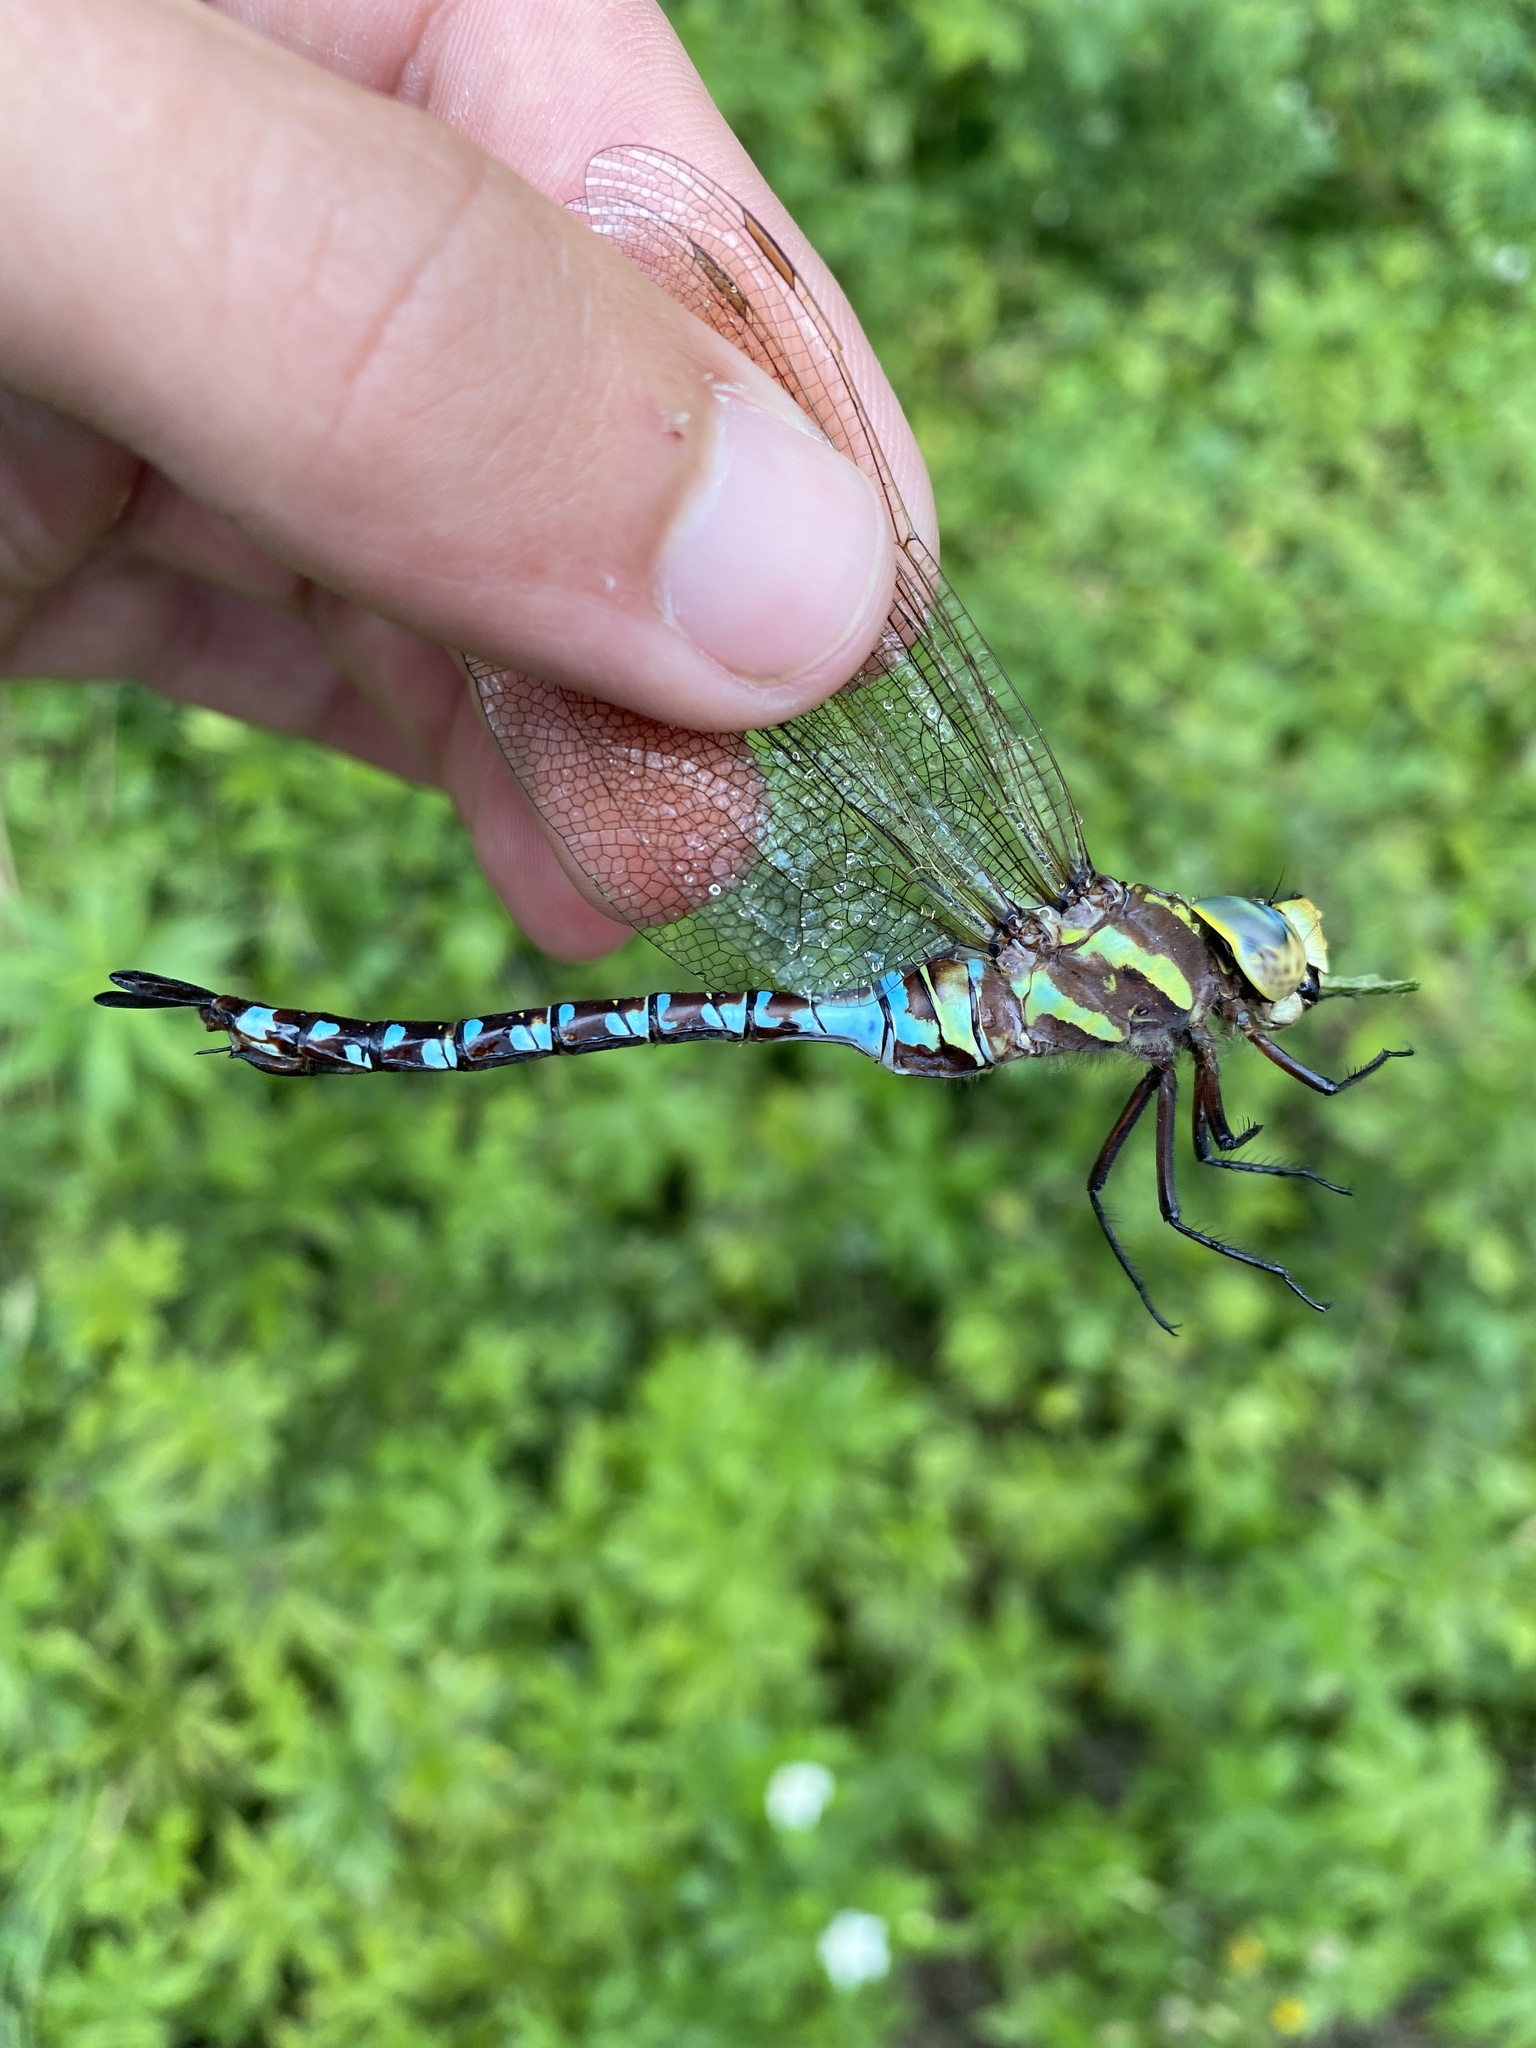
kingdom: Animalia
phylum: Arthropoda
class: Insecta
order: Odonata
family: Aeshnidae
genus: Aeshna
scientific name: Aeshna constricta
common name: Lance-tipped darner
